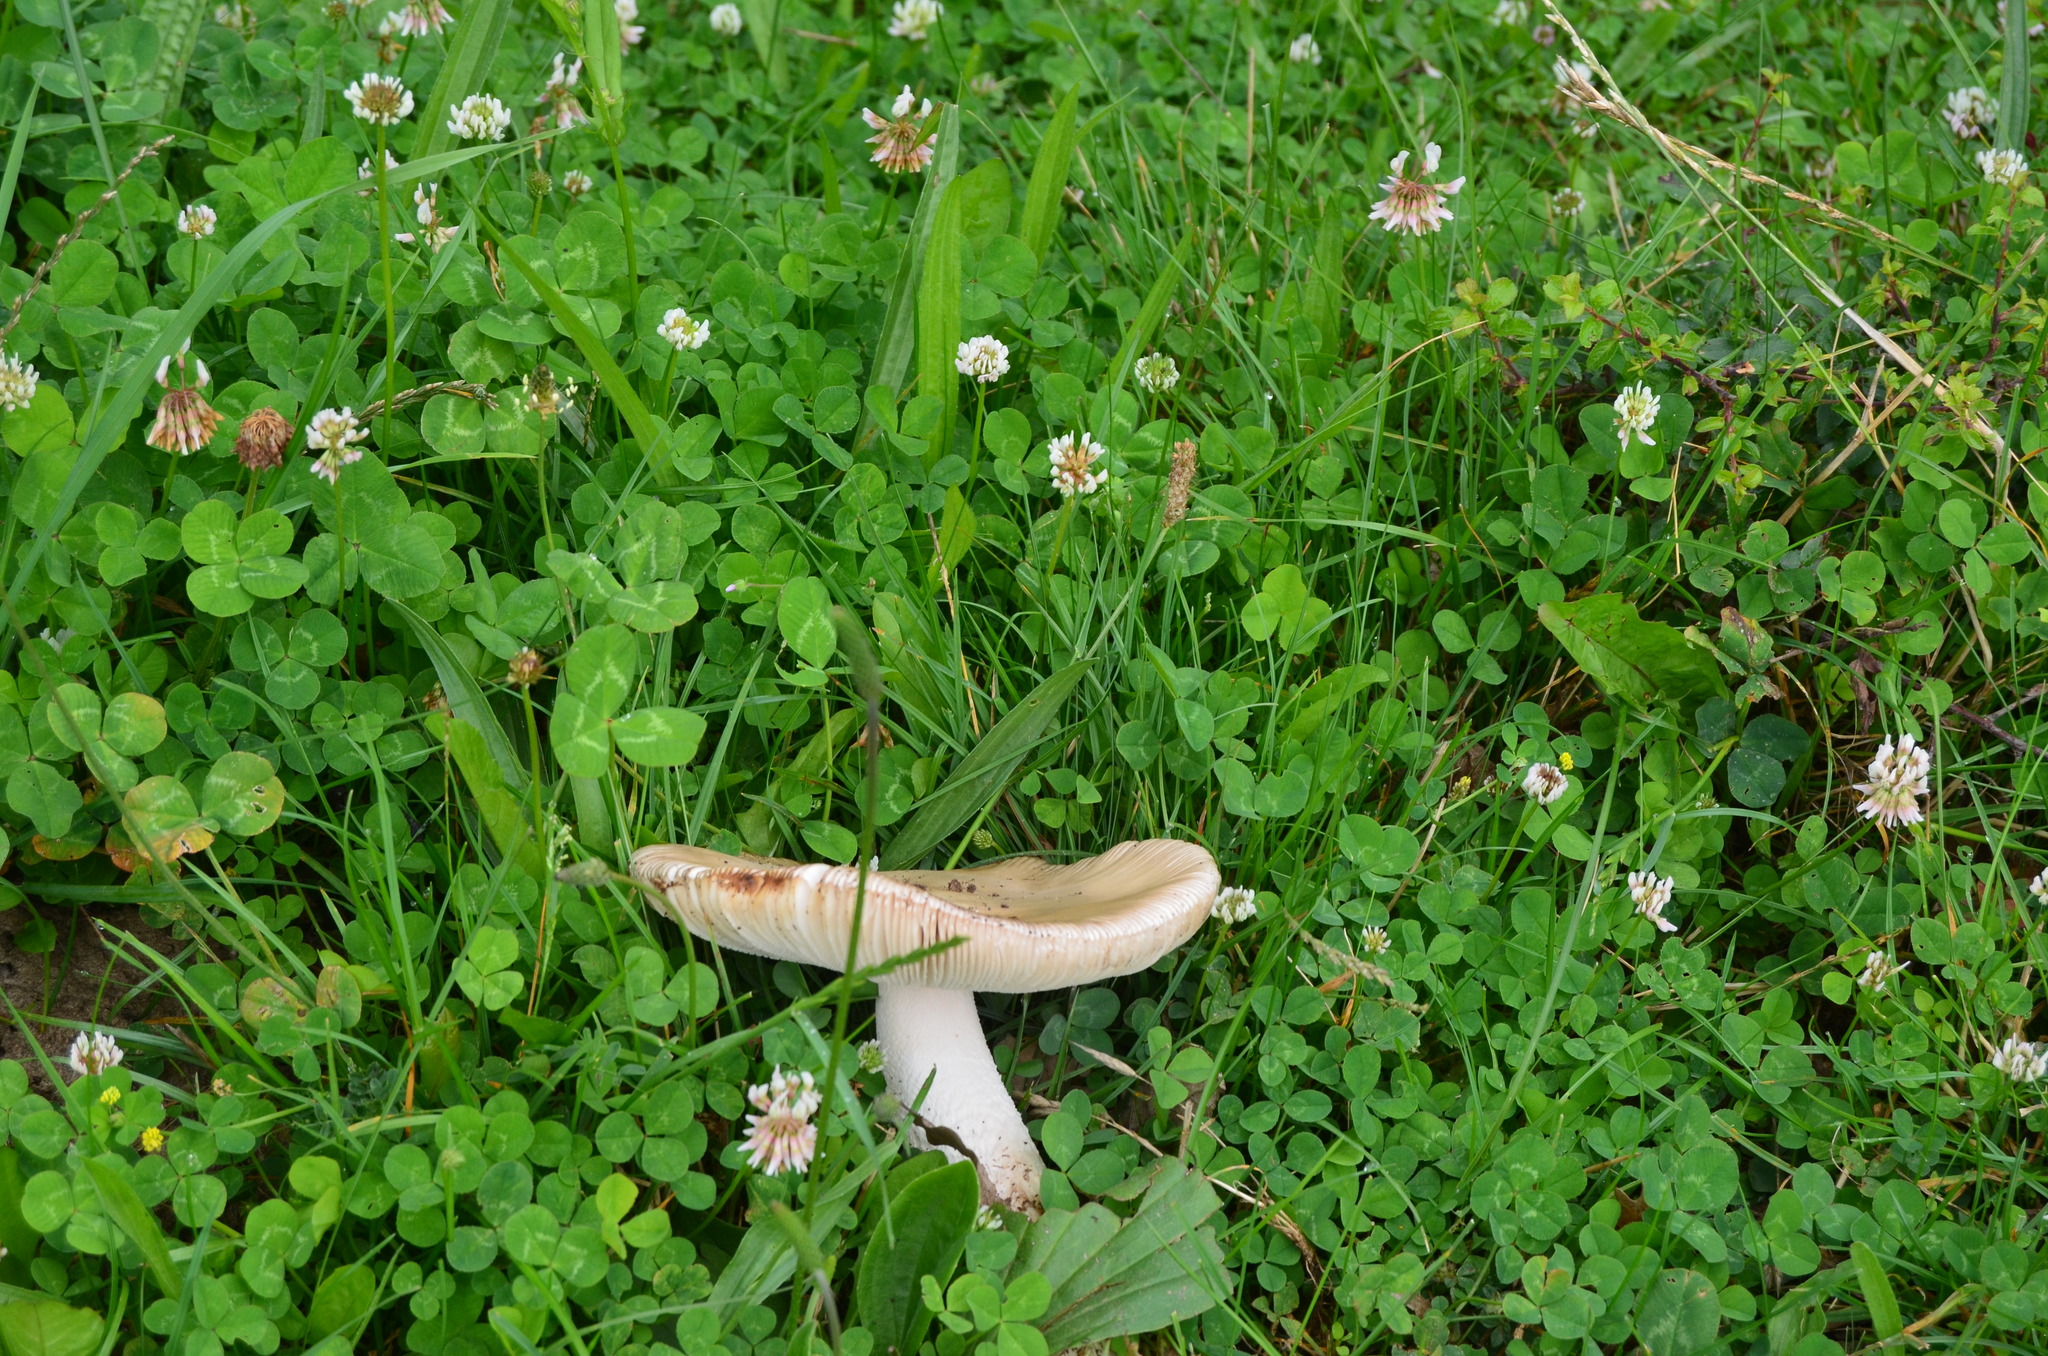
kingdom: Fungi
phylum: Basidiomycota
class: Agaricomycetes
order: Agaricales
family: Amanitaceae
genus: Amanita
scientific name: Amanita simulans
